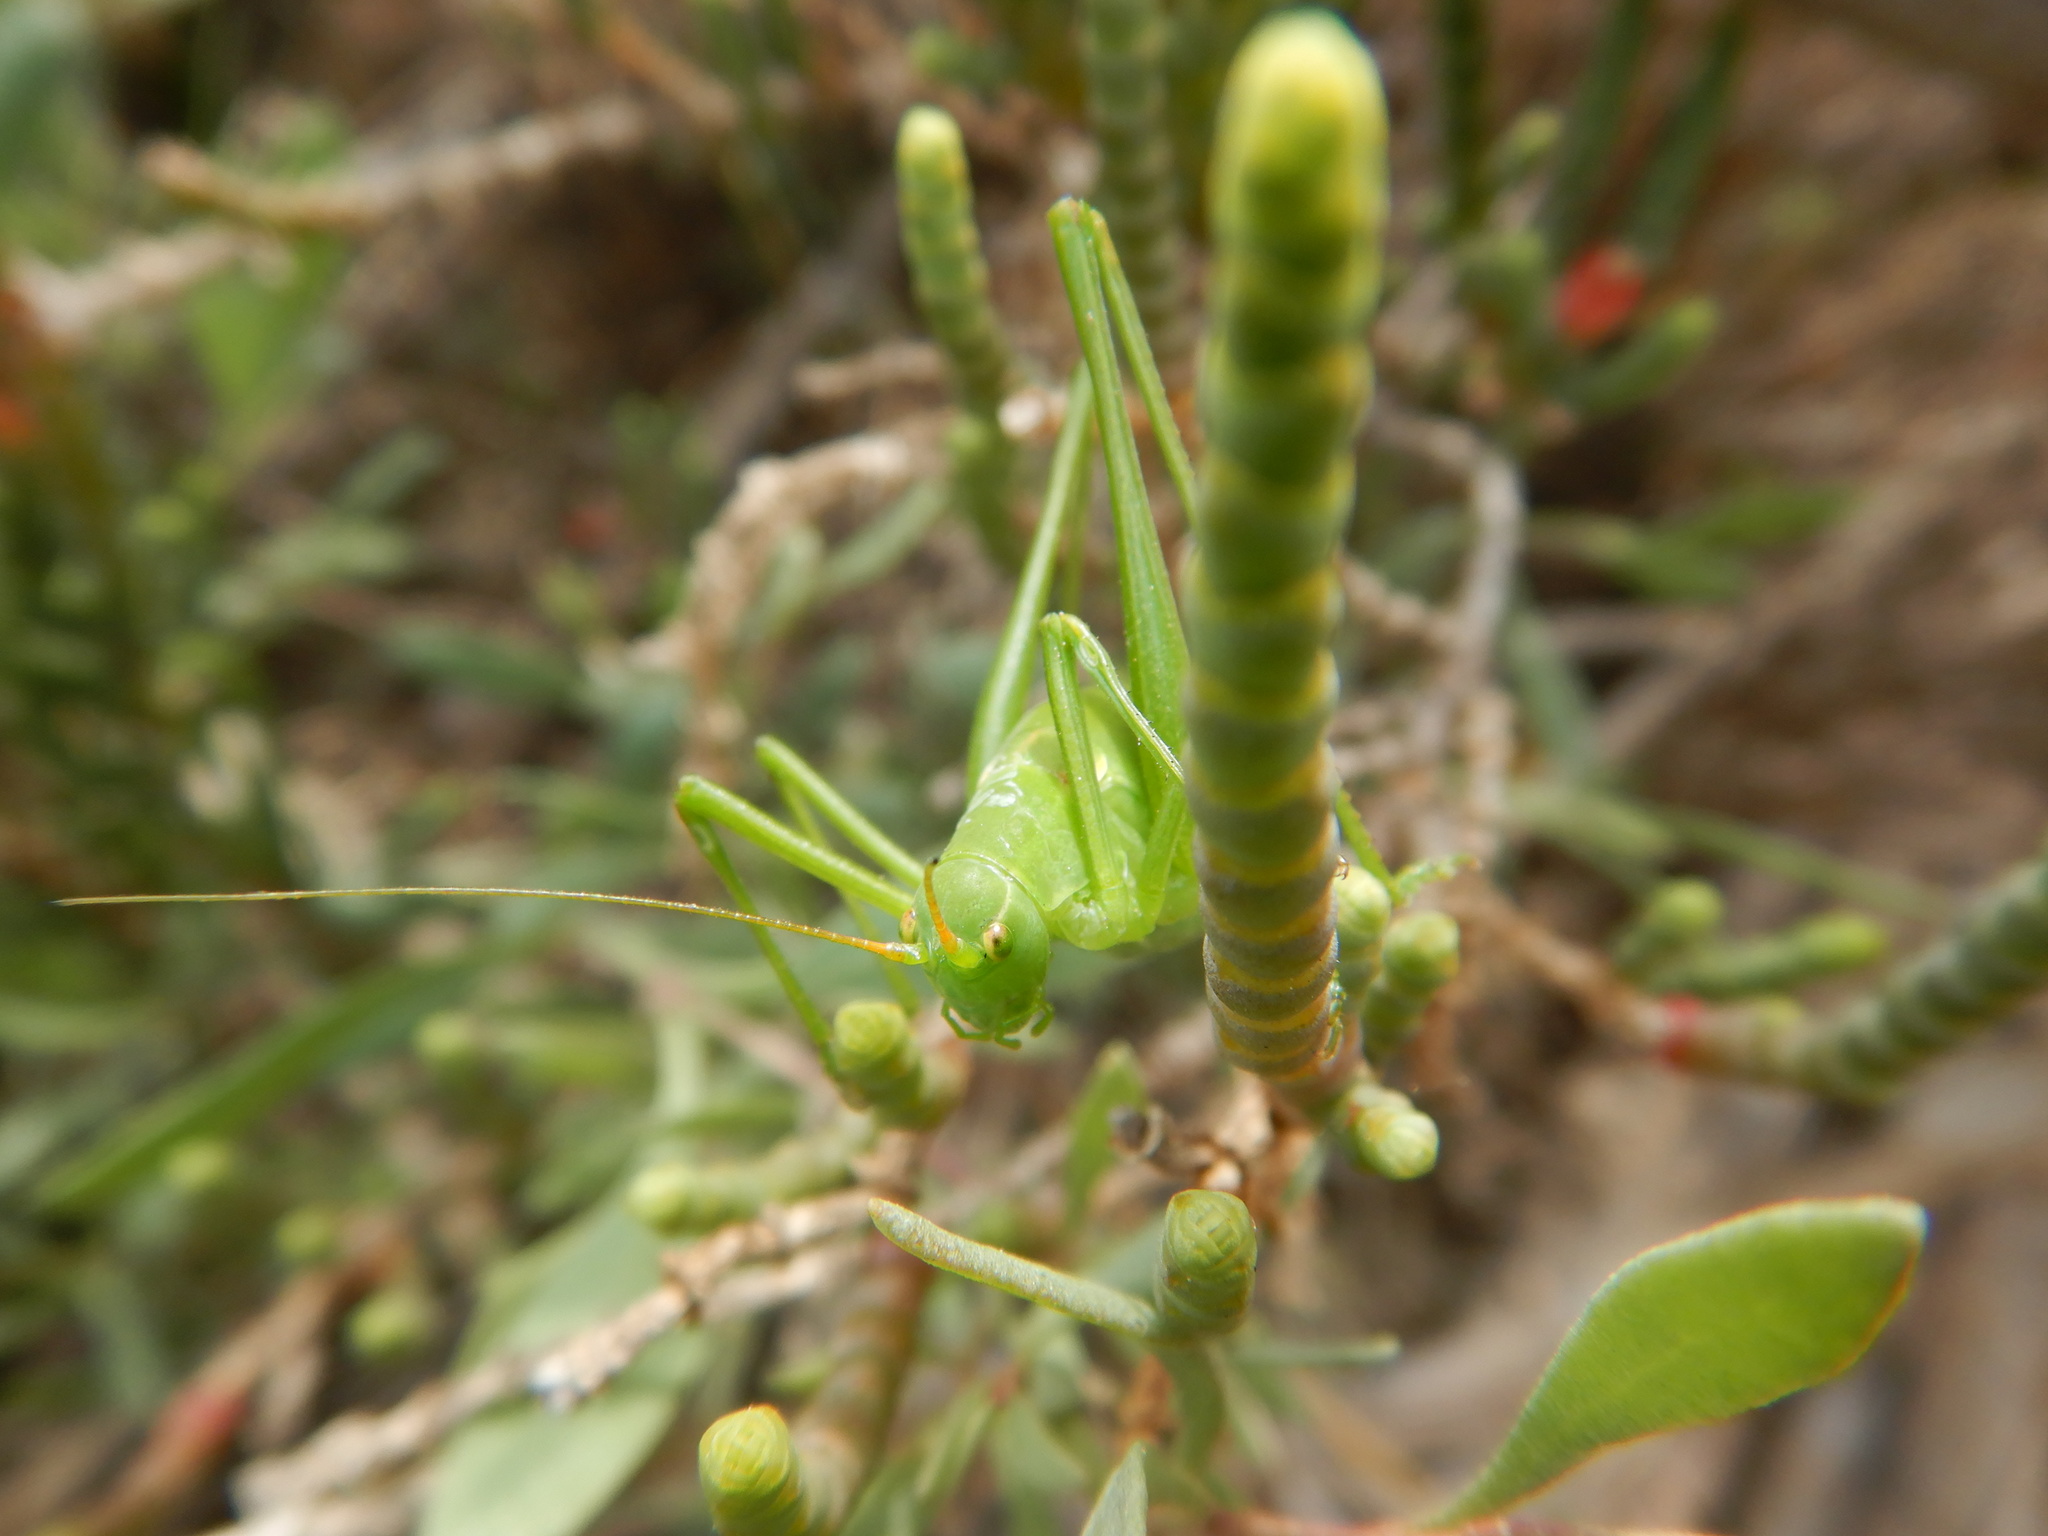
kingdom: Animalia
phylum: Arthropoda
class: Insecta
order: Orthoptera
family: Tettigoniidae
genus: Odontura
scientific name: Odontura glabricauda
